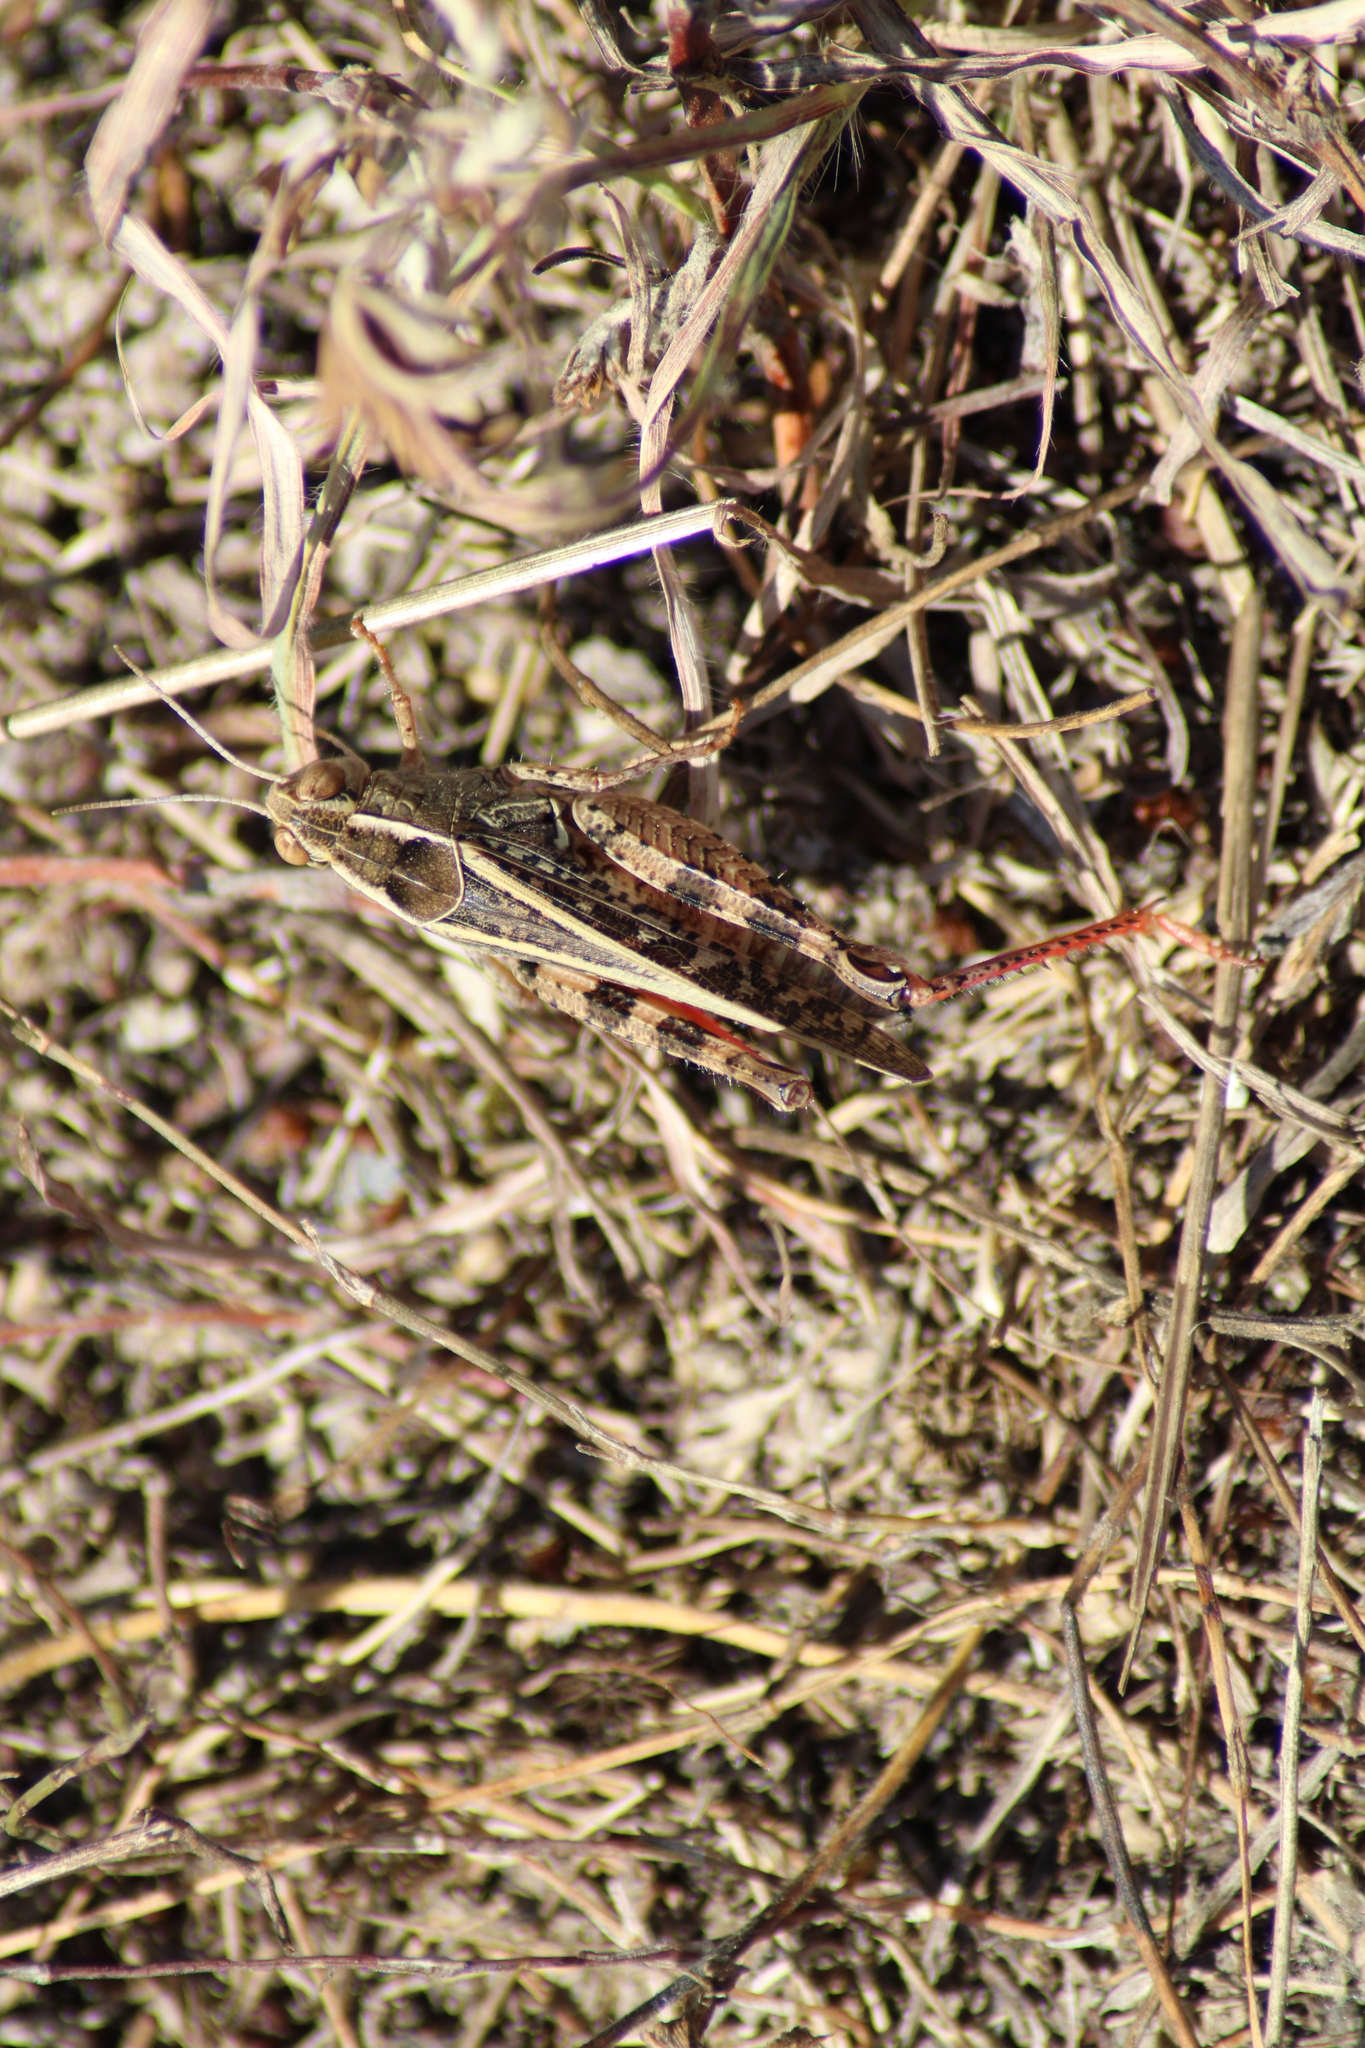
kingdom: Animalia
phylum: Arthropoda
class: Insecta
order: Orthoptera
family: Acrididae
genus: Calliptamus
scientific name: Calliptamus italicus
